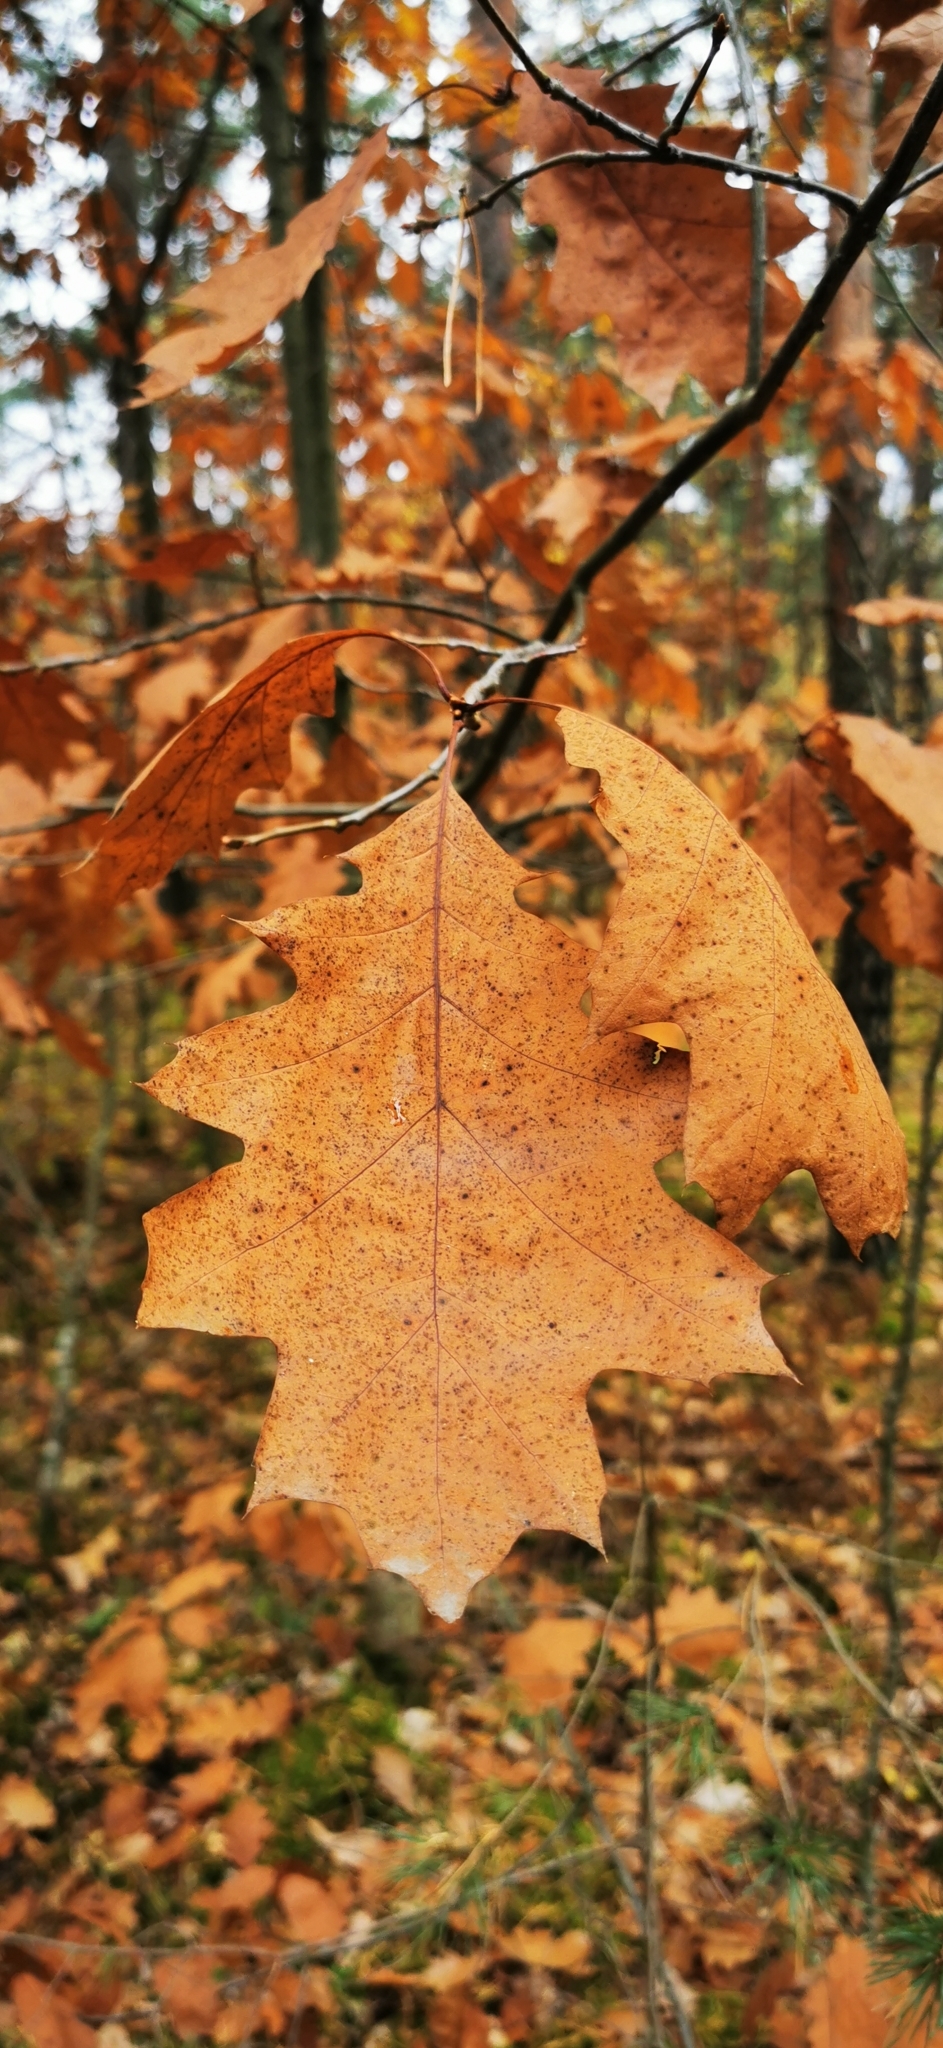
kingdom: Plantae
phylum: Tracheophyta
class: Magnoliopsida
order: Fagales
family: Fagaceae
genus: Quercus
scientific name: Quercus rubra
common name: Red oak
